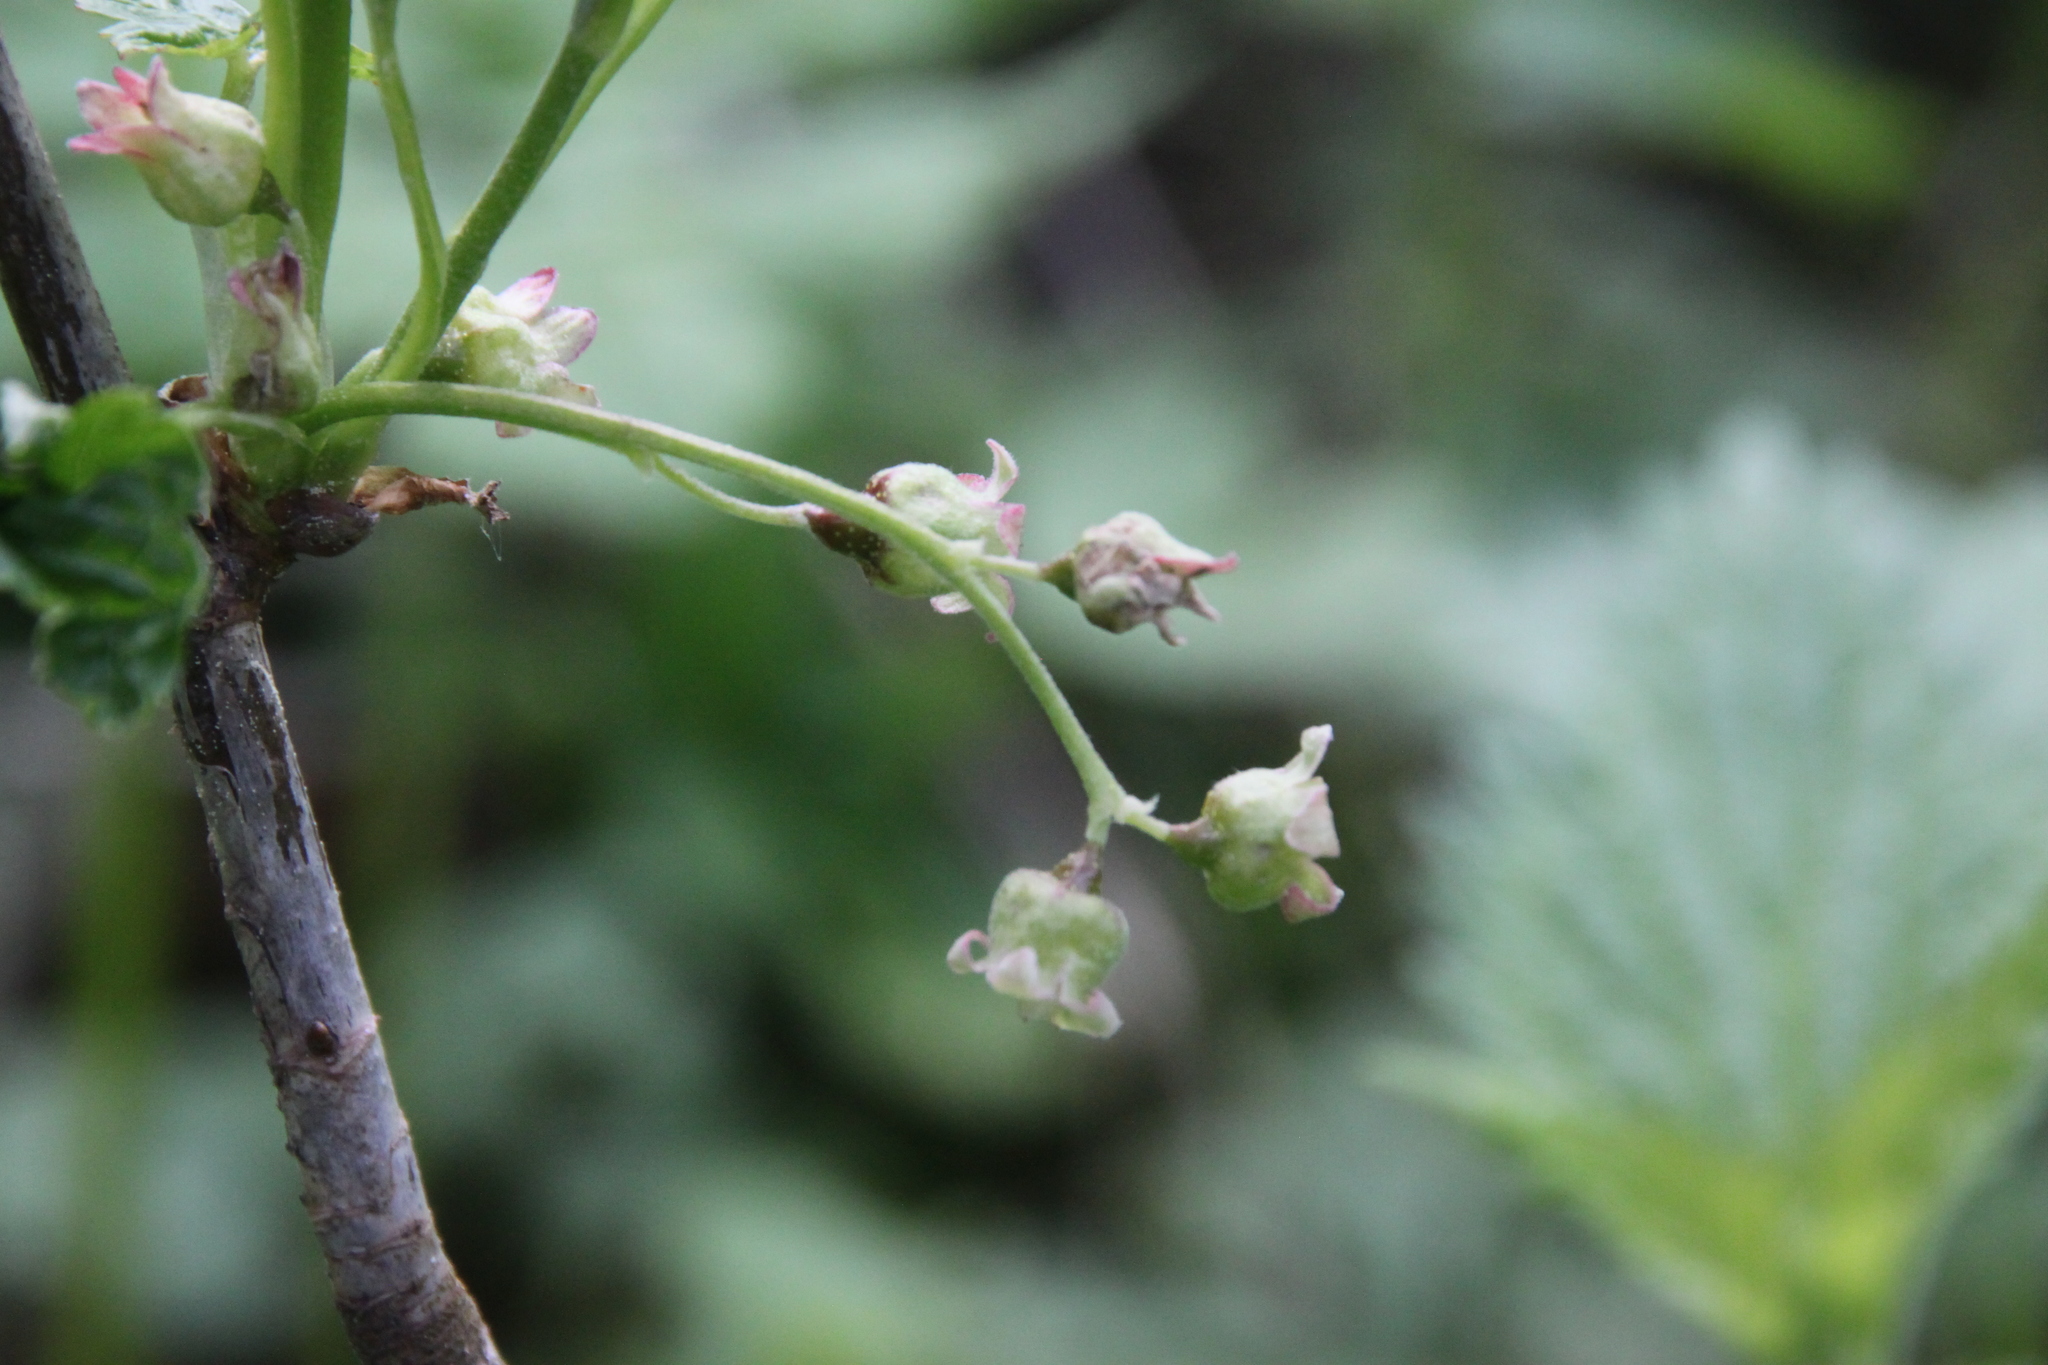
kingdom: Plantae
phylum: Tracheophyta
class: Magnoliopsida
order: Saxifragales
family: Grossulariaceae
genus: Ribes
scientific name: Ribes nigrum
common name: Black currant
